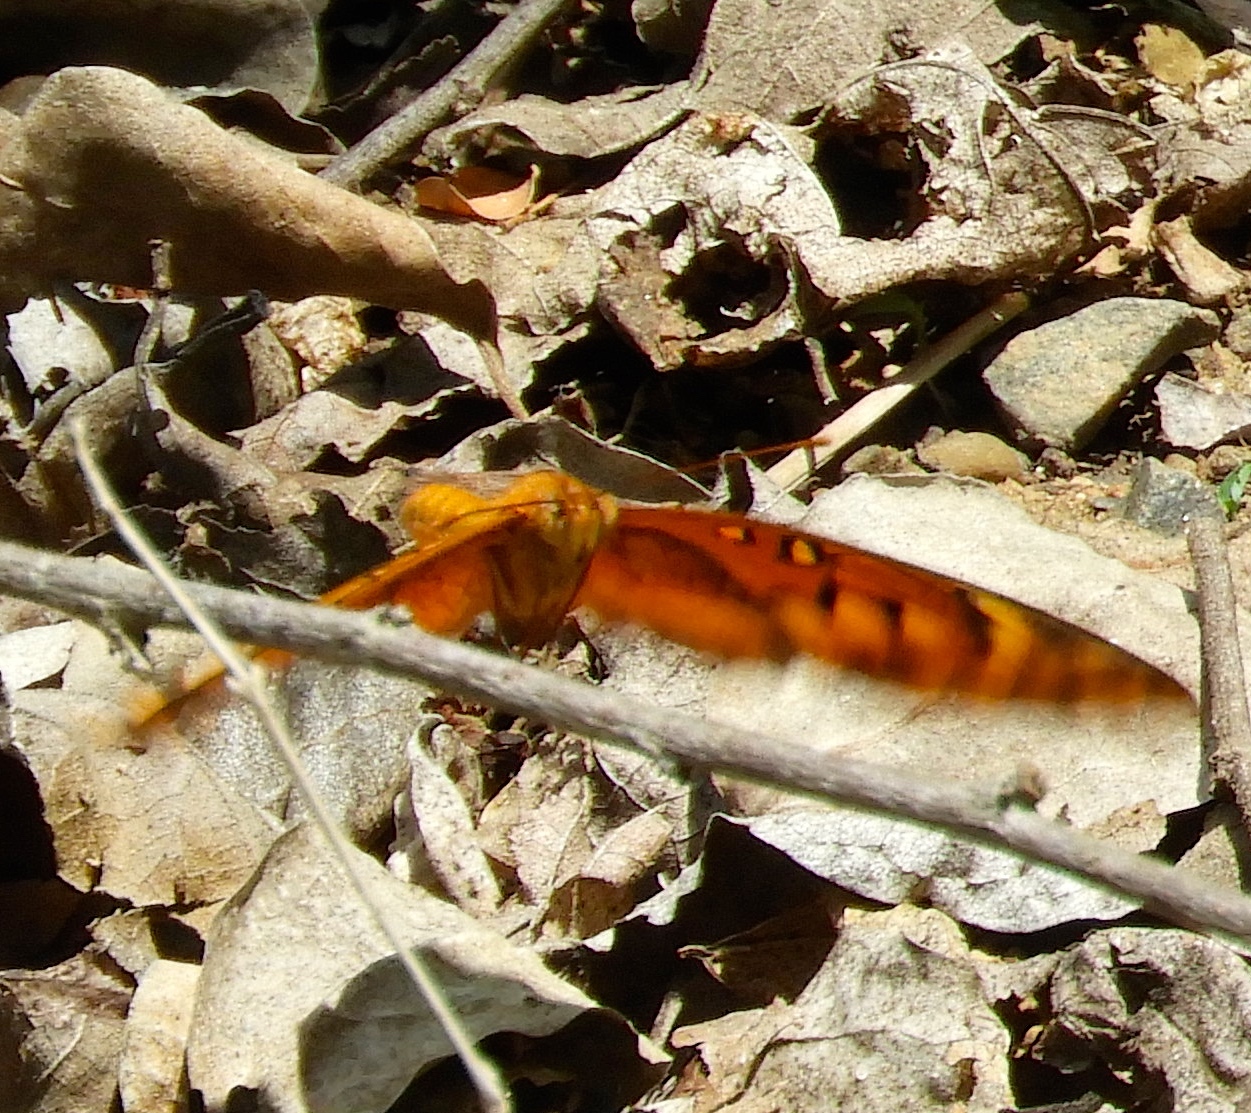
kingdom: Animalia
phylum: Arthropoda
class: Insecta
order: Lepidoptera
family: Nymphalidae
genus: Euptoieta
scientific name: Euptoieta hegesia
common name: Mexican fritillary
